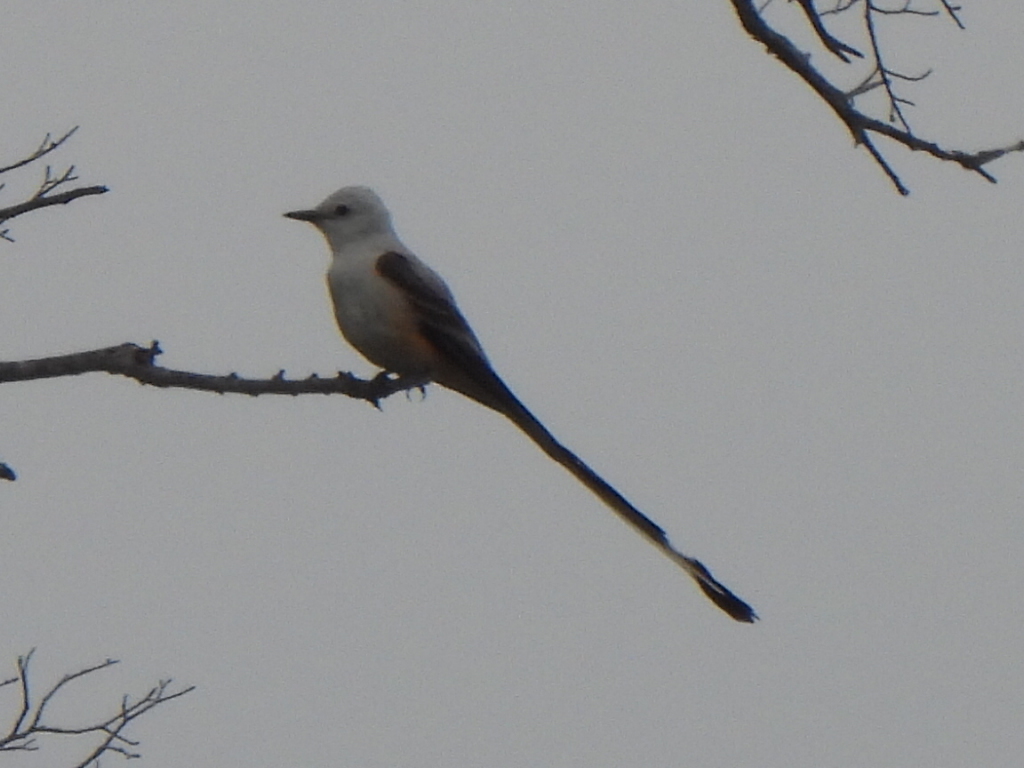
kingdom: Animalia
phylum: Chordata
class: Aves
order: Passeriformes
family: Tyrannidae
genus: Tyrannus
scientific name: Tyrannus forficatus
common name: Scissor-tailed flycatcher
